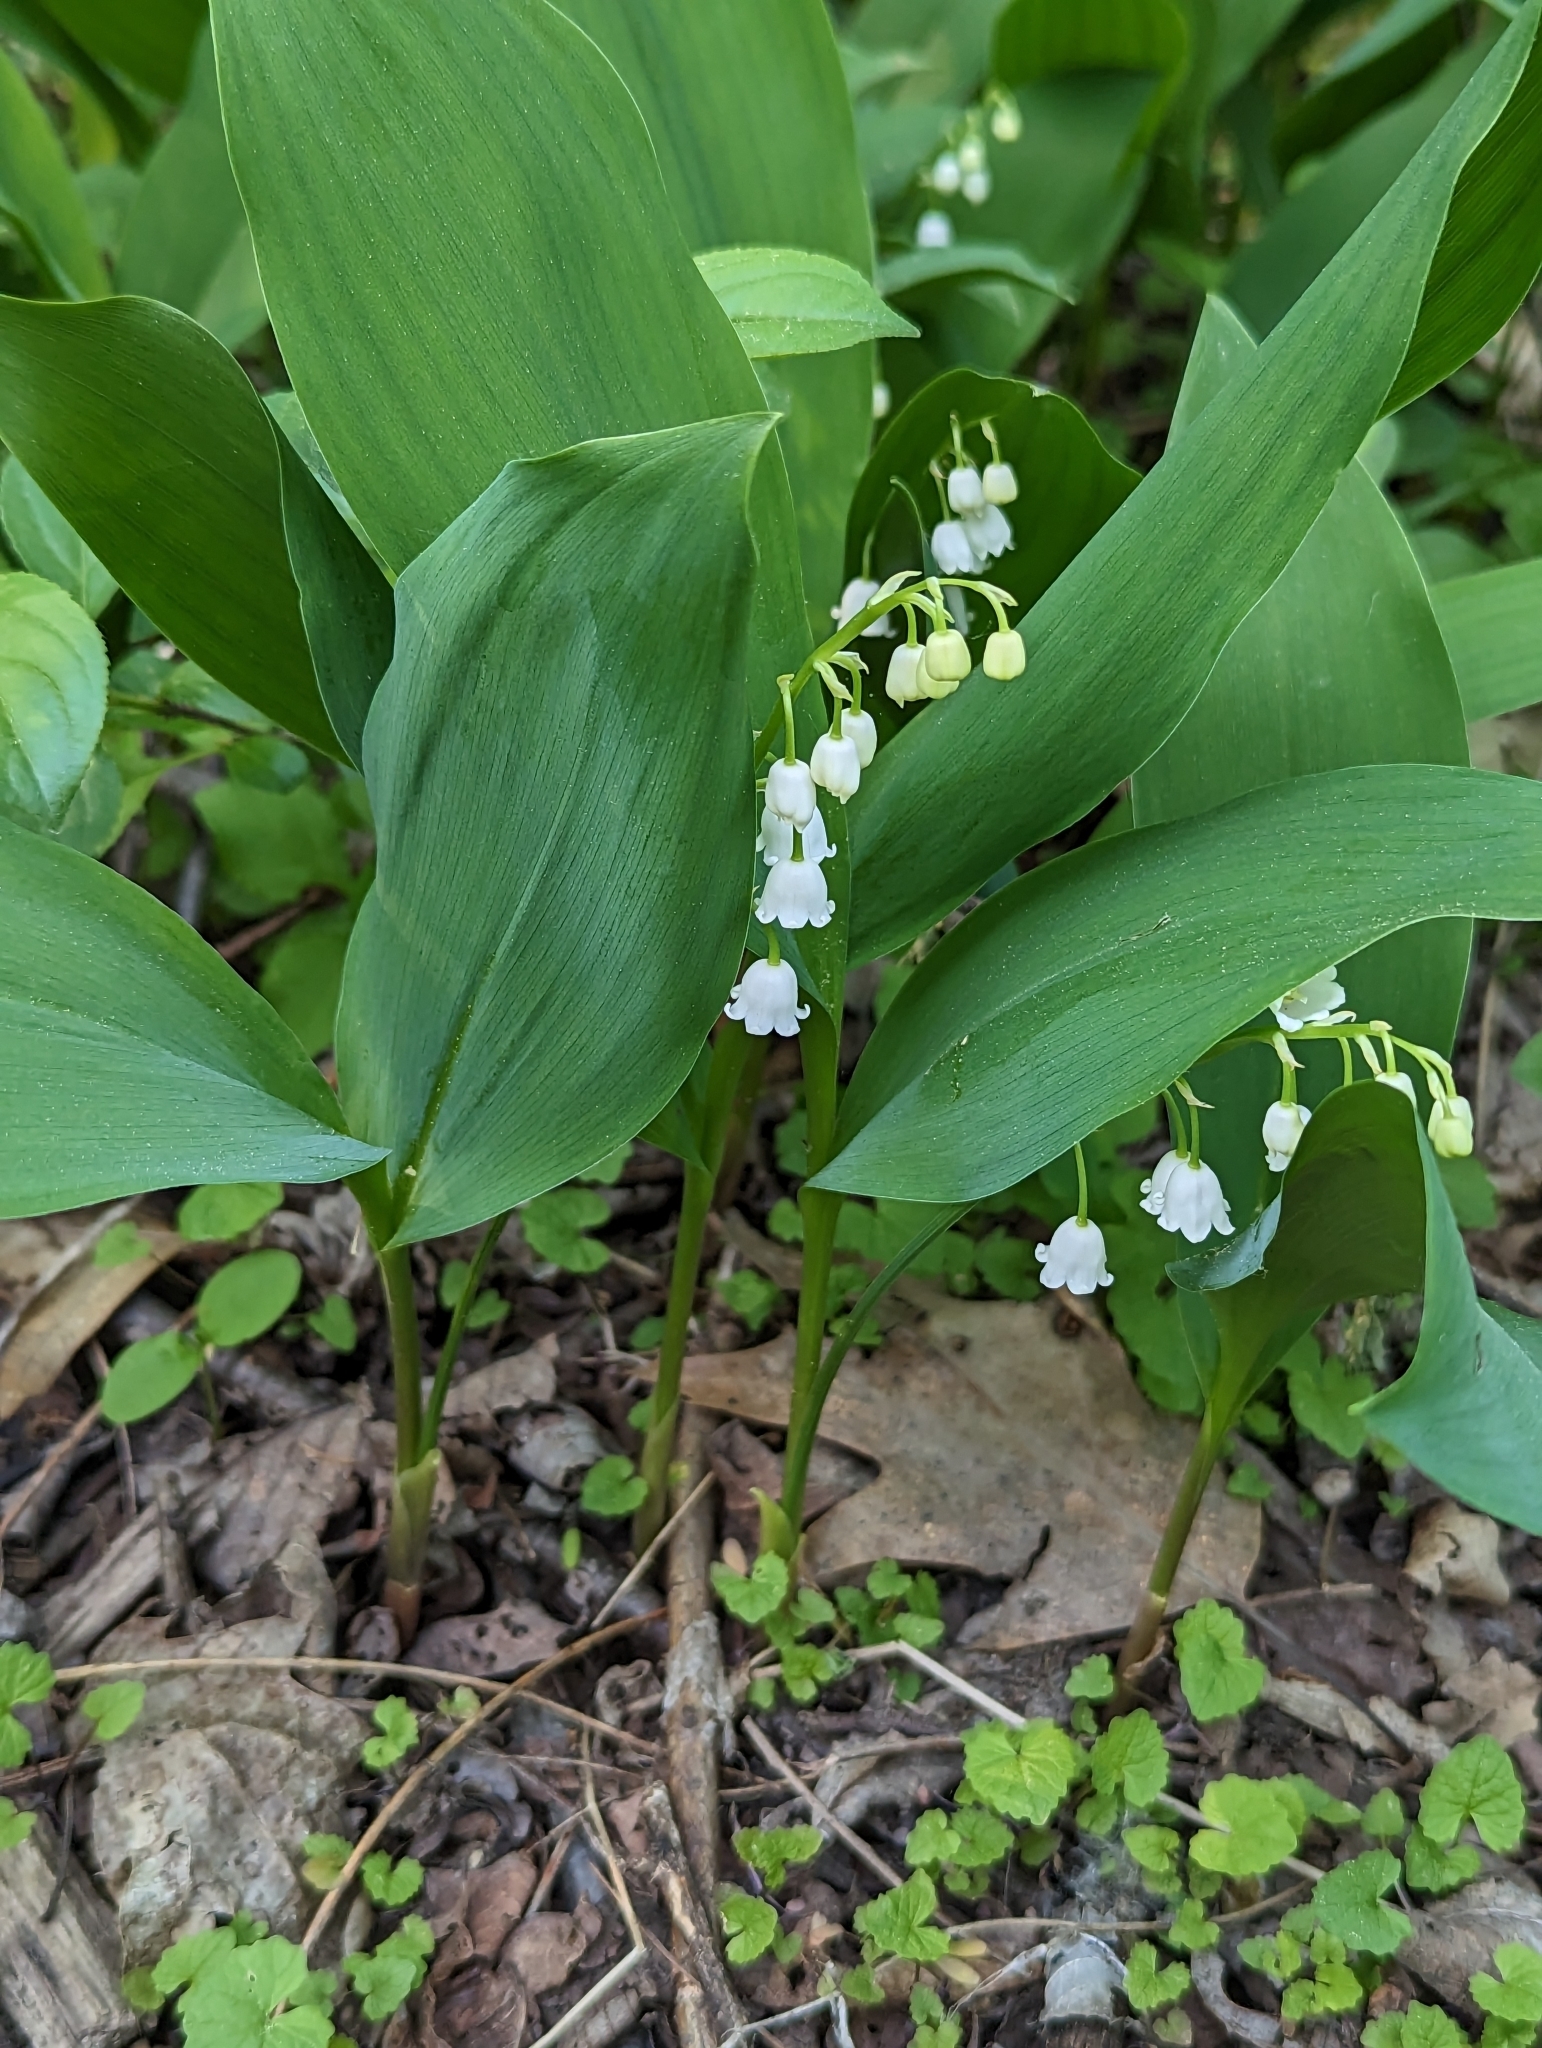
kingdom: Plantae
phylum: Tracheophyta
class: Liliopsida
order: Asparagales
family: Asparagaceae
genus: Convallaria
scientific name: Convallaria majalis
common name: Lily-of-the-valley
